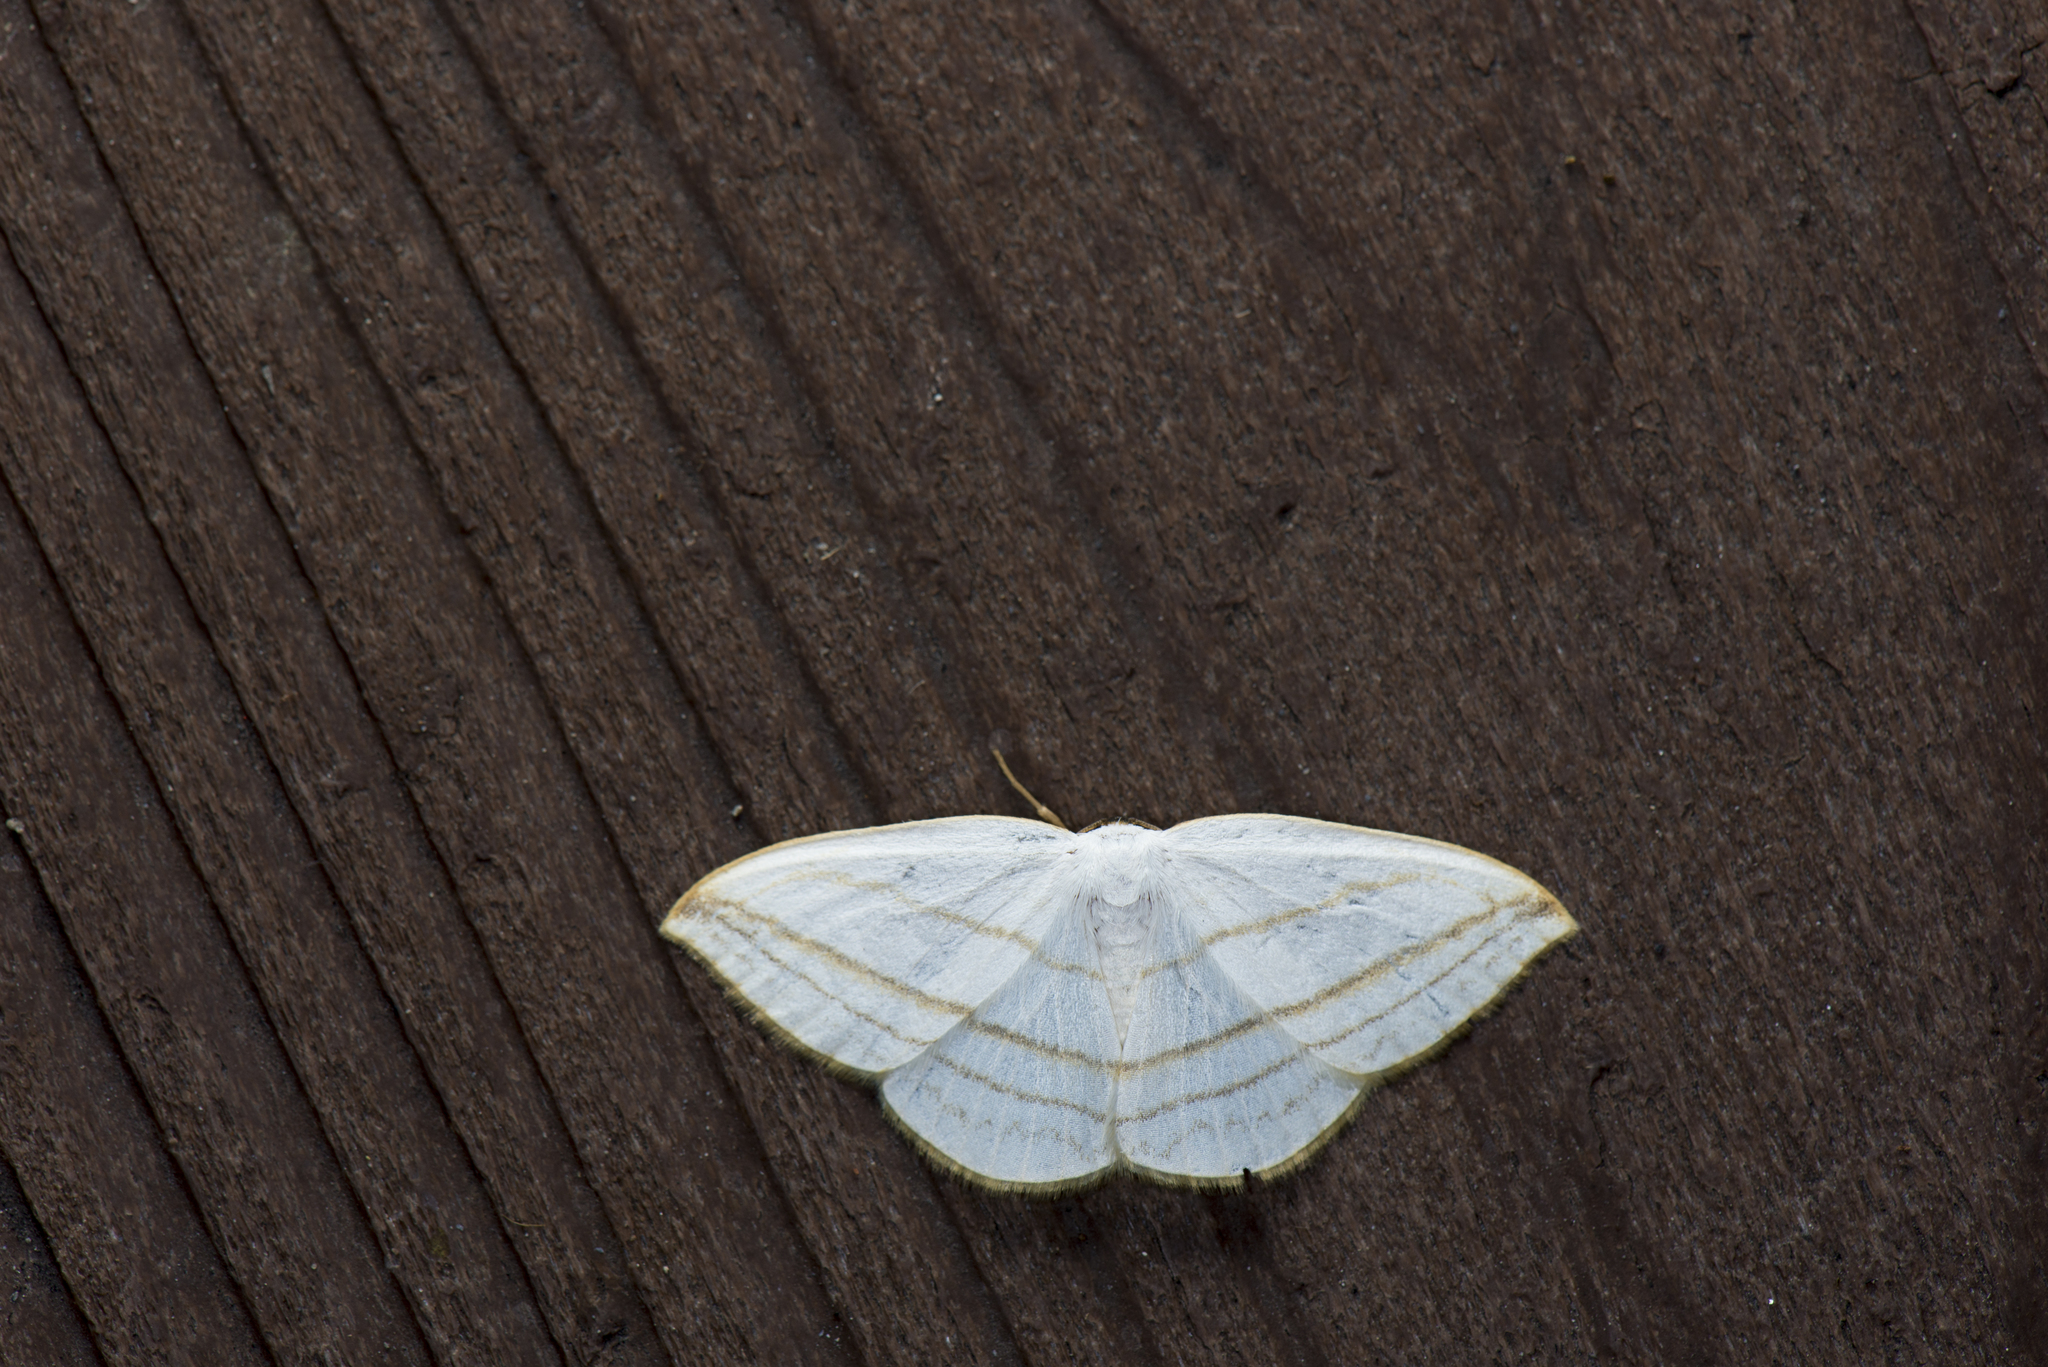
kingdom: Animalia
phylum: Arthropoda
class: Insecta
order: Lepidoptera
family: Drepanidae
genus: Ditrigona
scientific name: Ditrigona conflexaria
